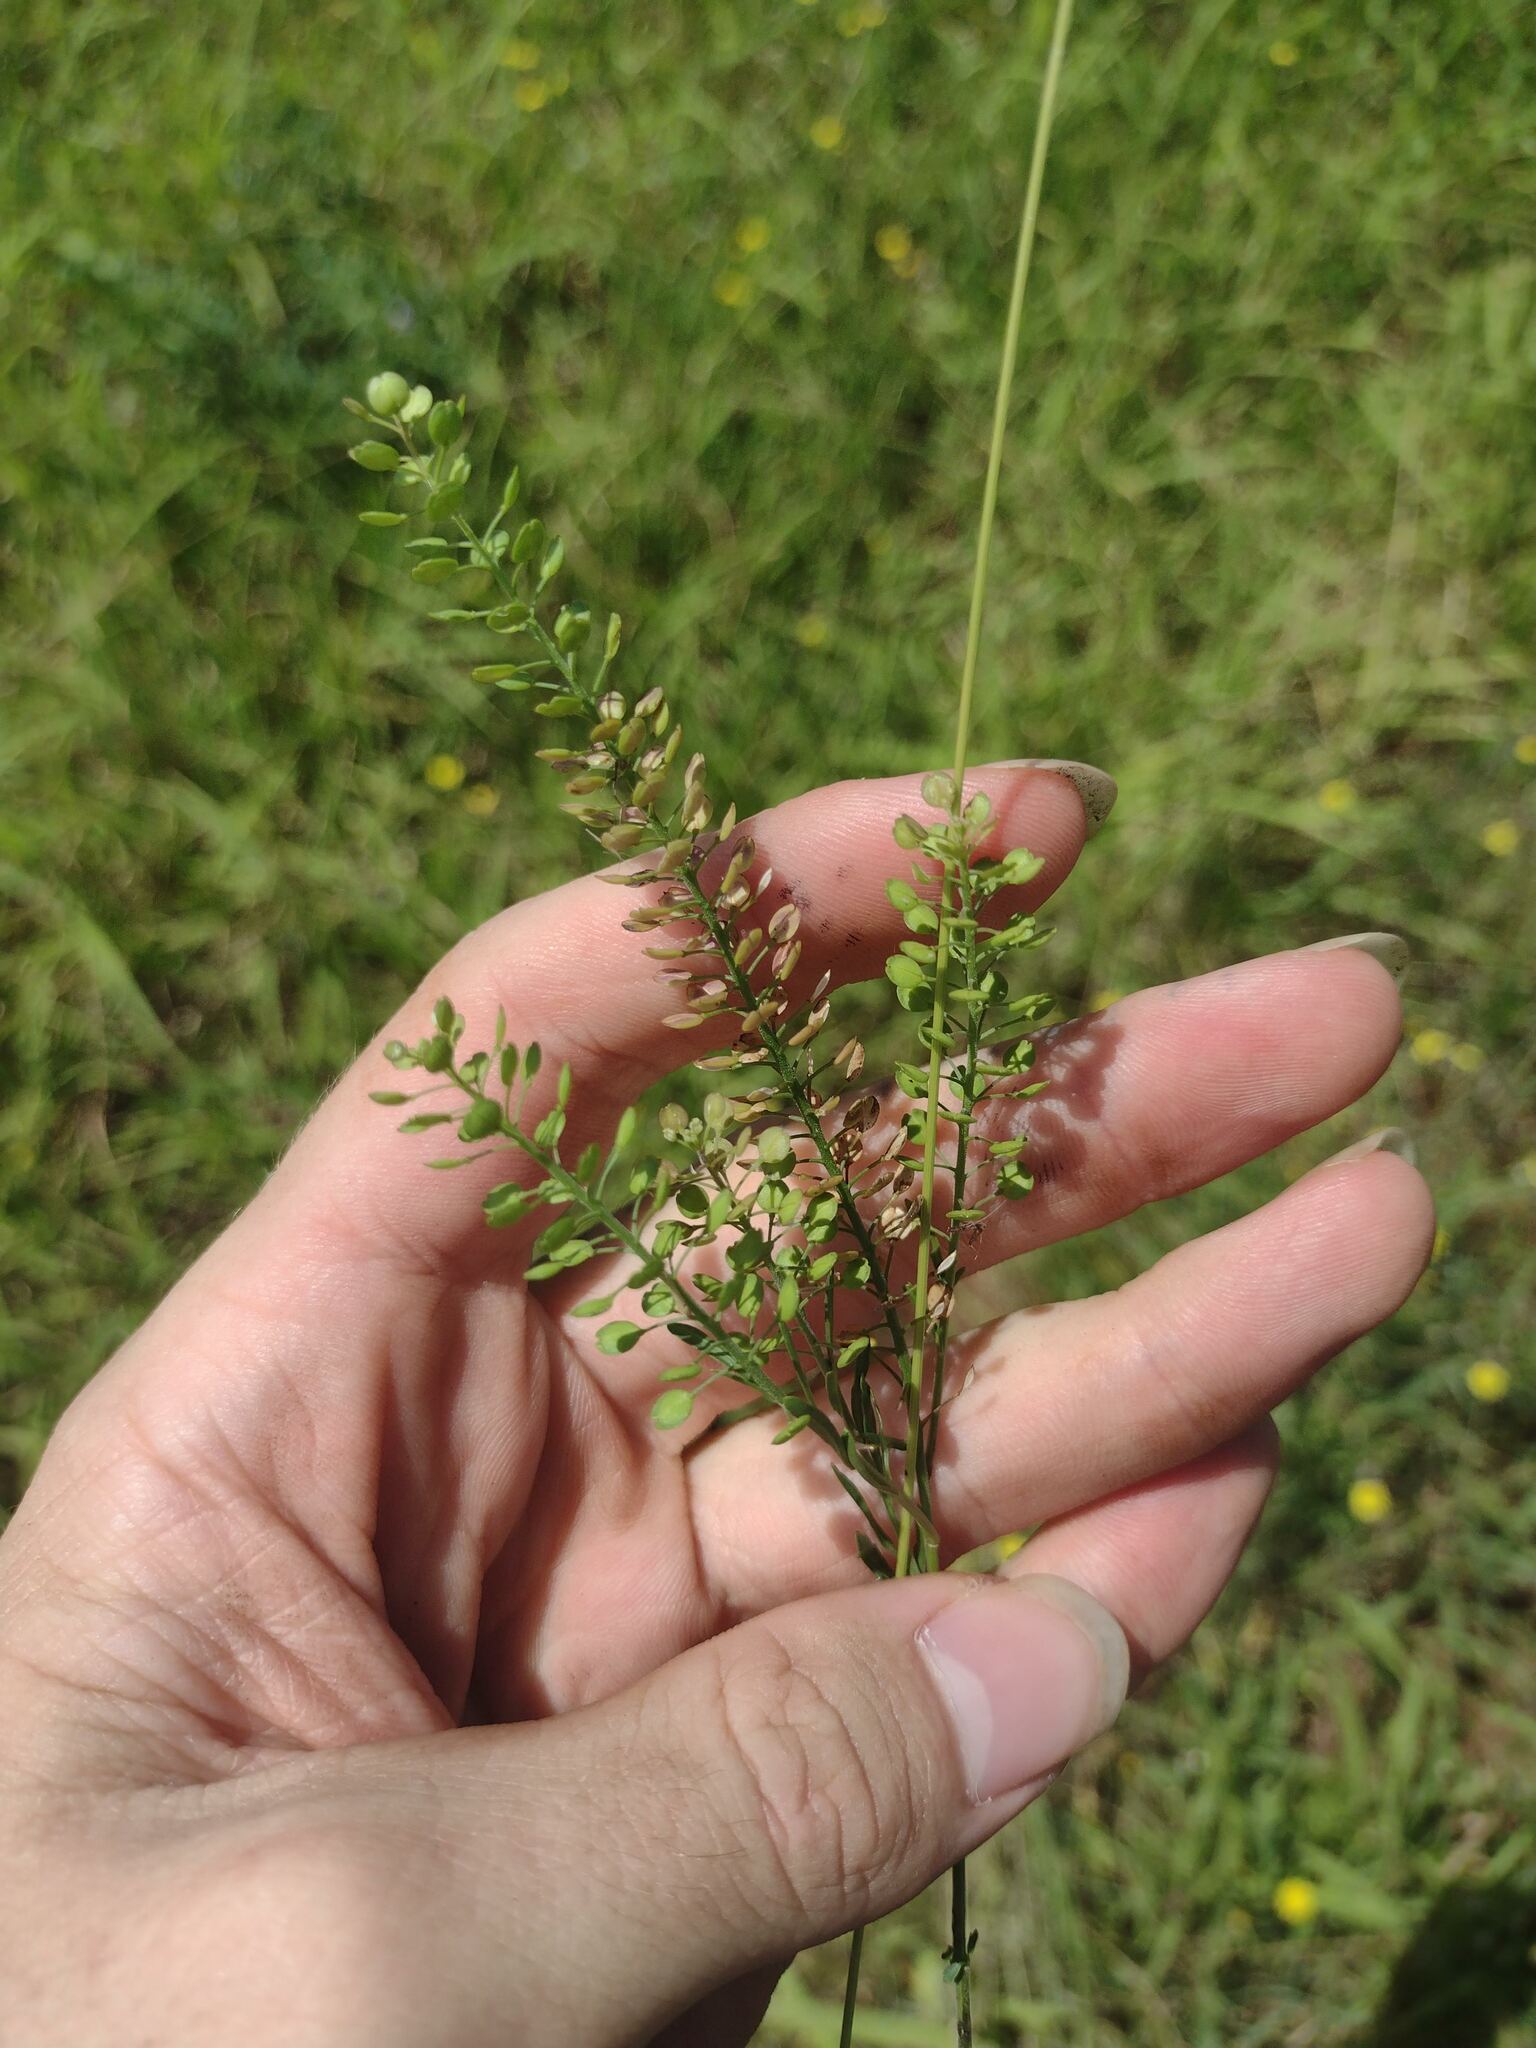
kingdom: Plantae
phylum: Tracheophyta
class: Magnoliopsida
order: Brassicales
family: Brassicaceae
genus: Lepidium
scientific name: Lepidium virginicum
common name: Least pepperwort
